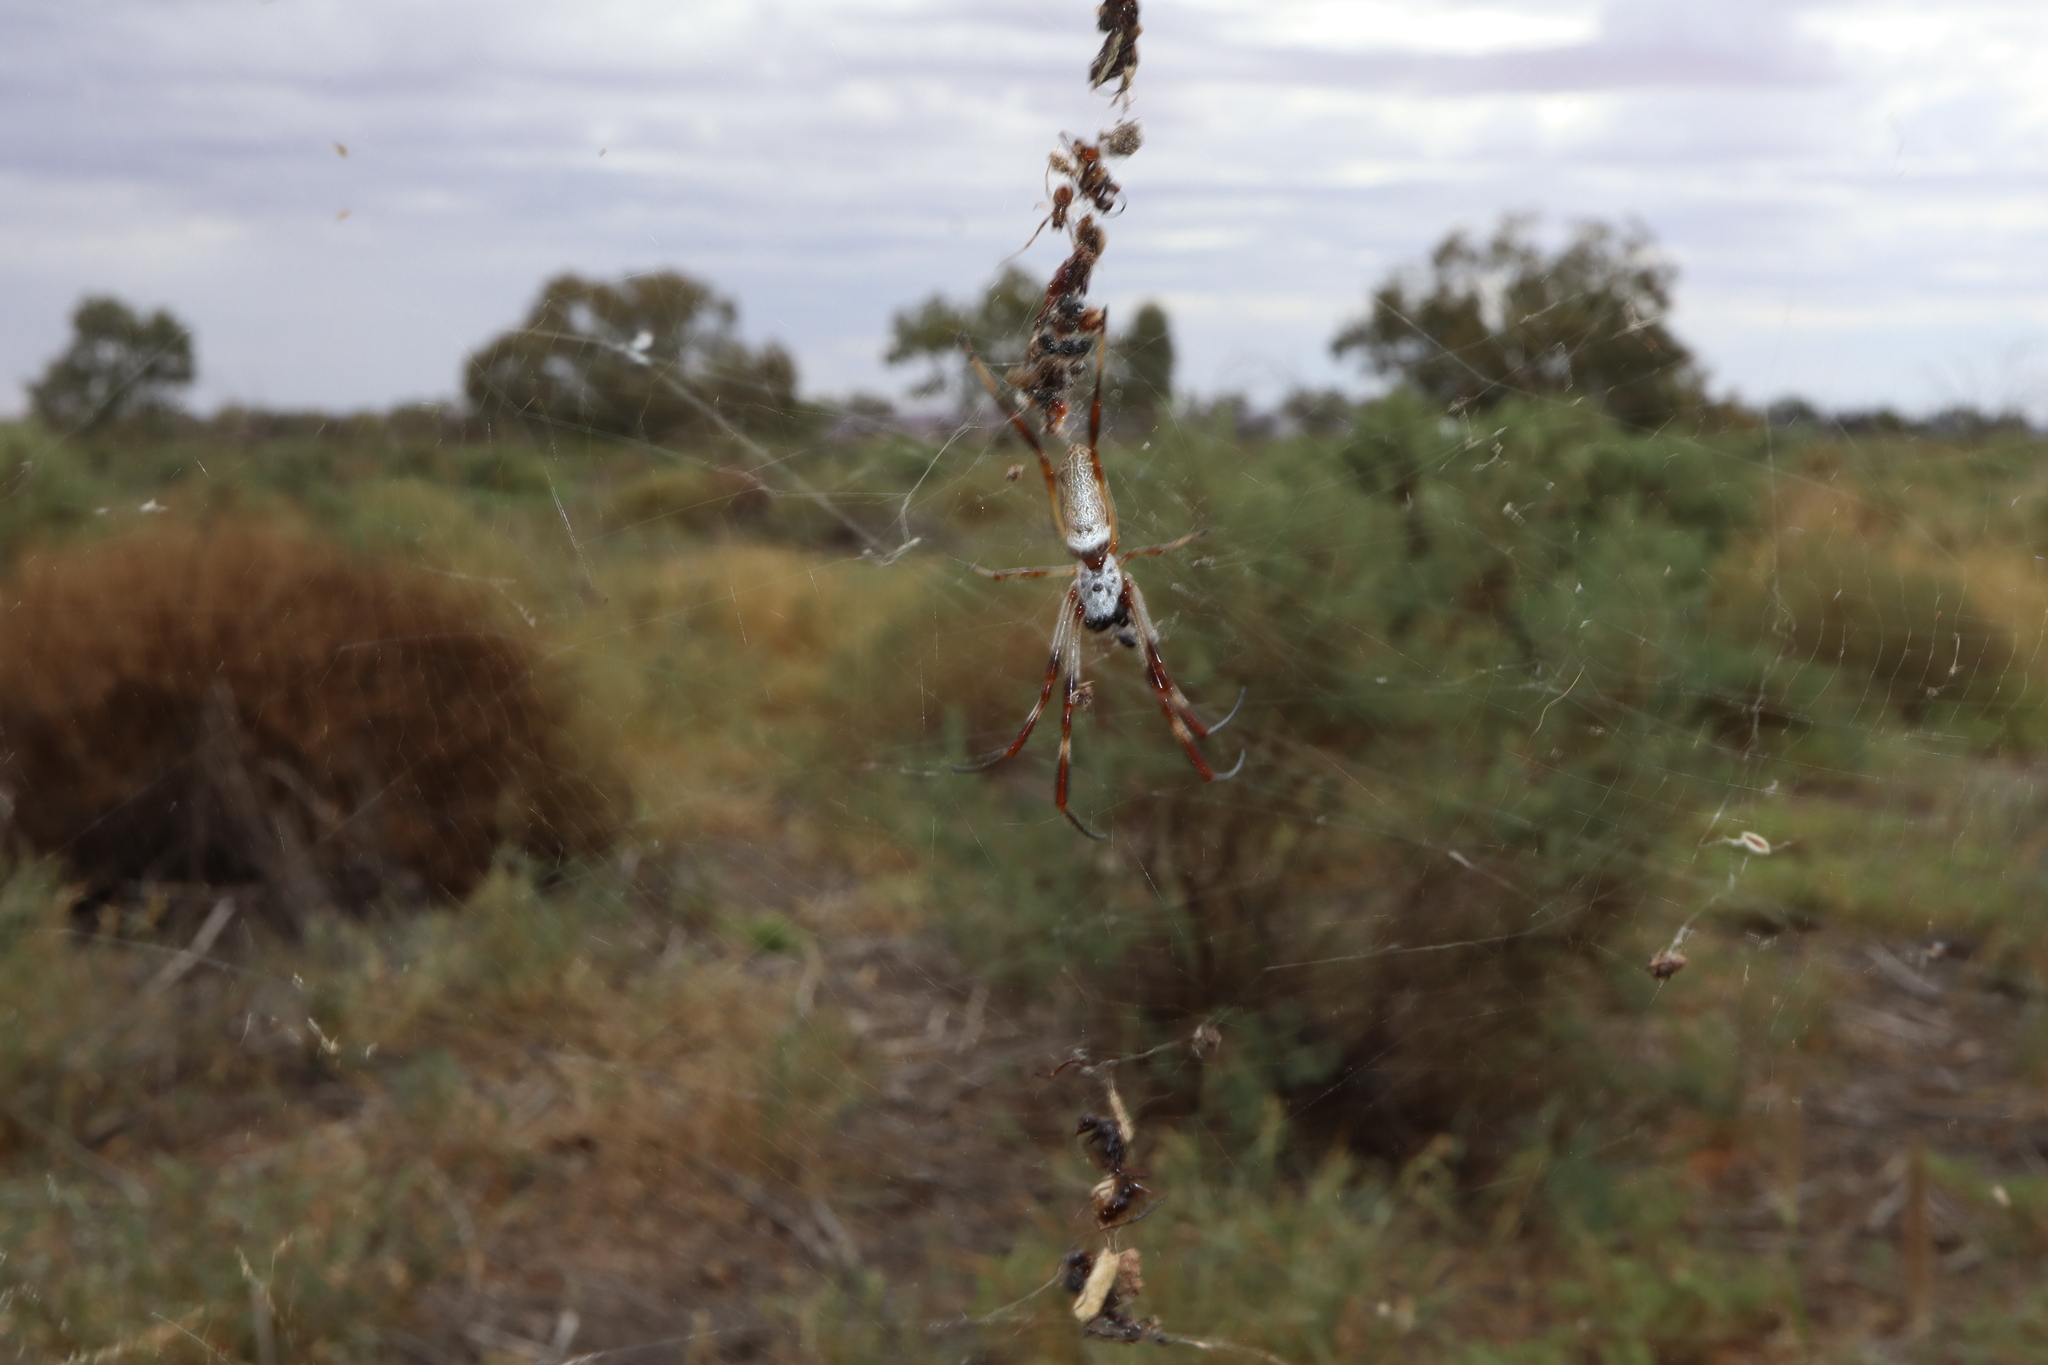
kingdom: Animalia
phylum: Arthropoda
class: Arachnida
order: Araneae
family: Araneidae
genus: Trichonephila
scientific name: Trichonephila edulis
